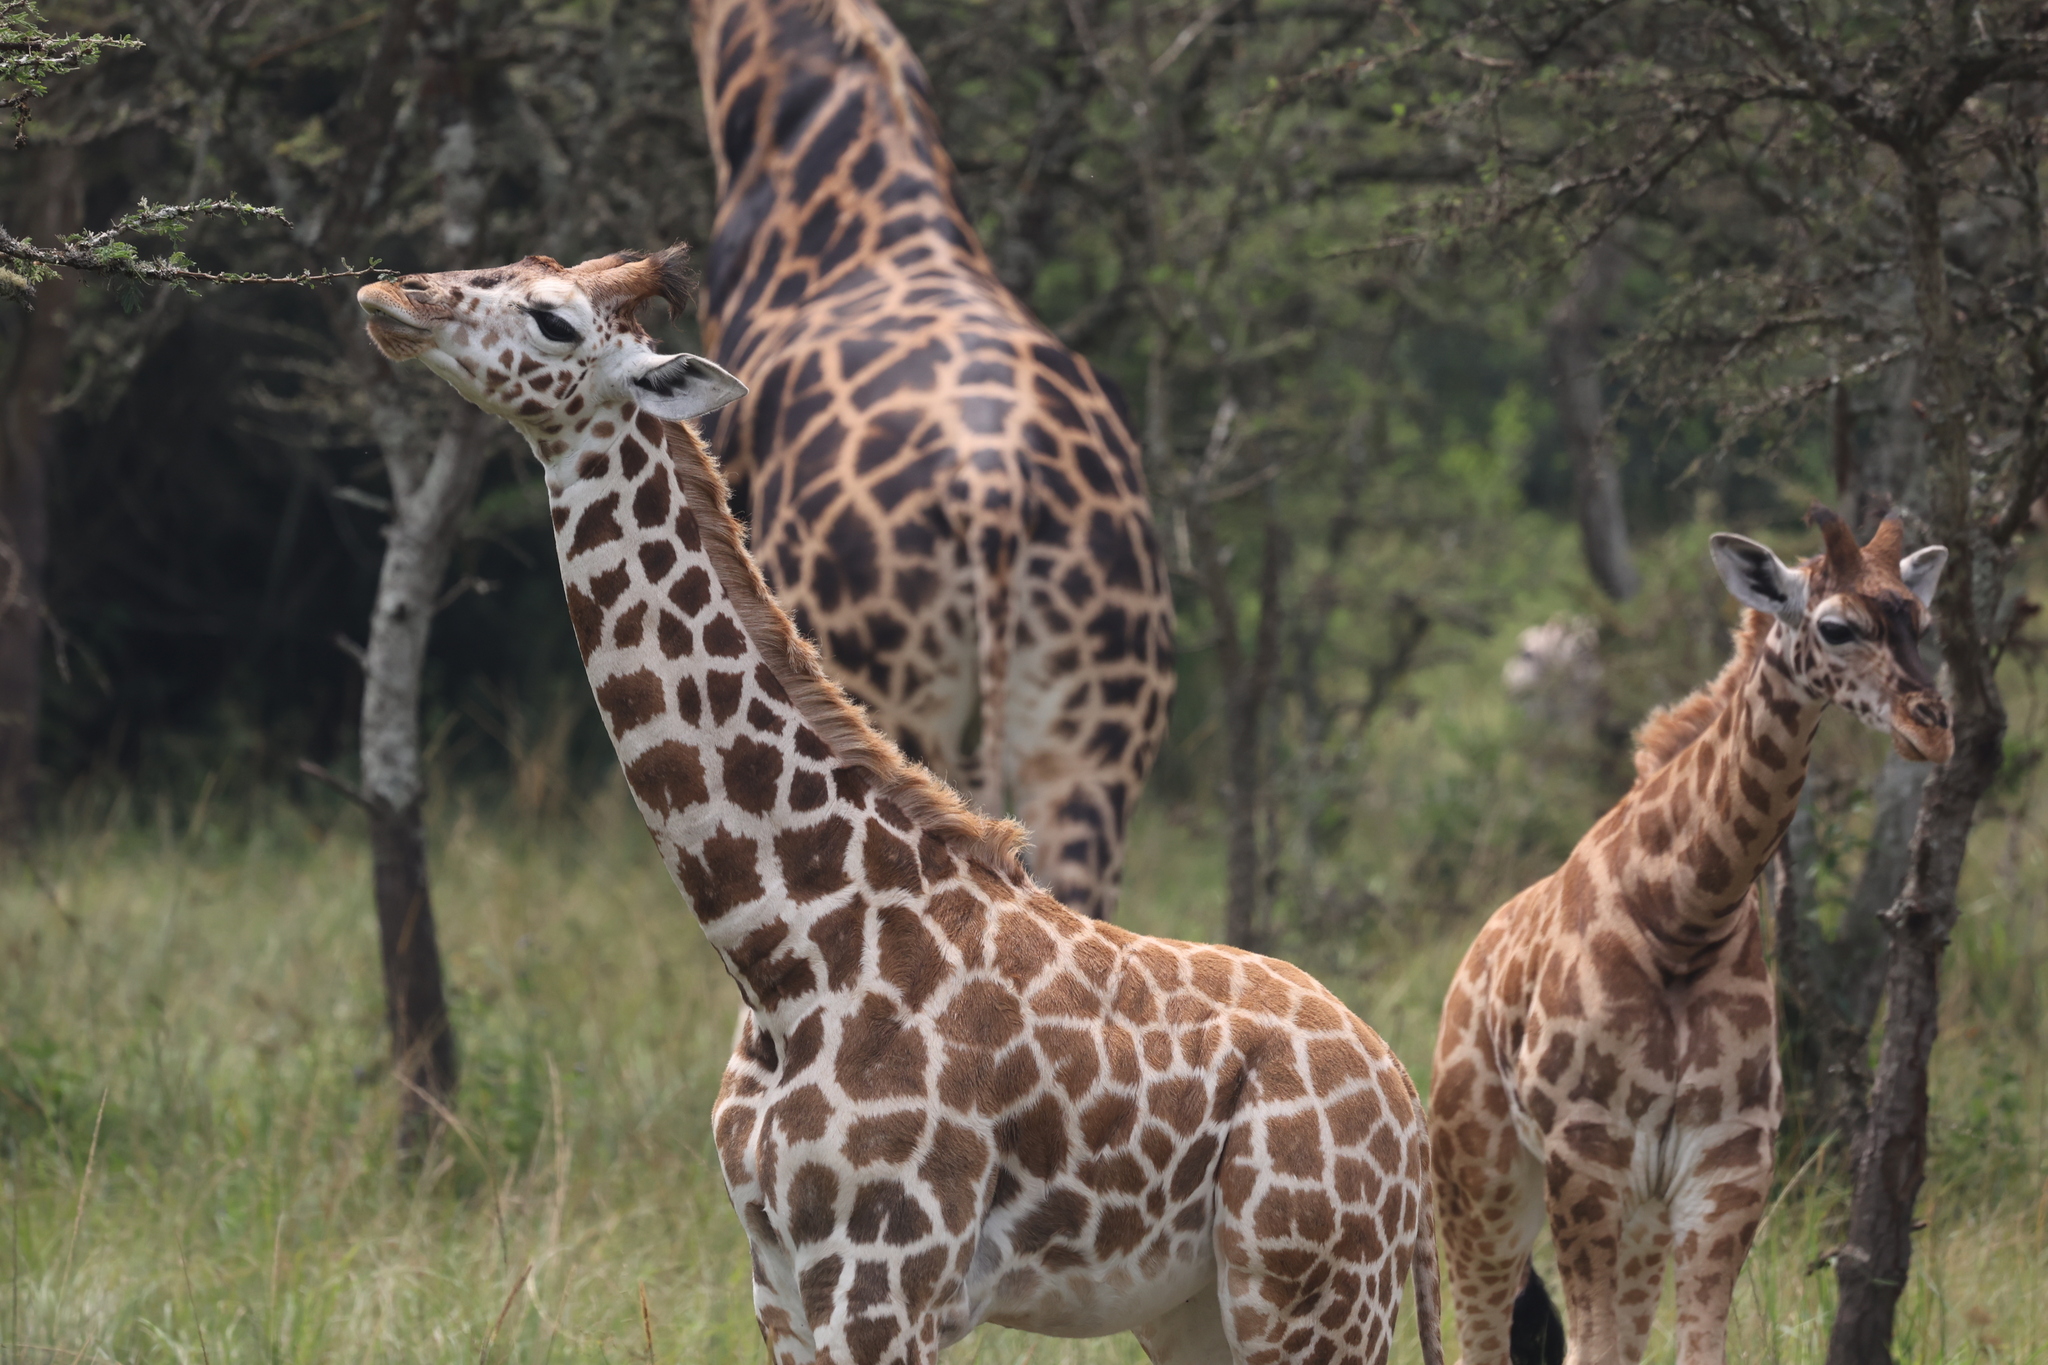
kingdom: Animalia
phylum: Chordata
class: Mammalia
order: Artiodactyla
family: Giraffidae
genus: Giraffa
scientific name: Giraffa camelopardalis
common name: Giraffe
